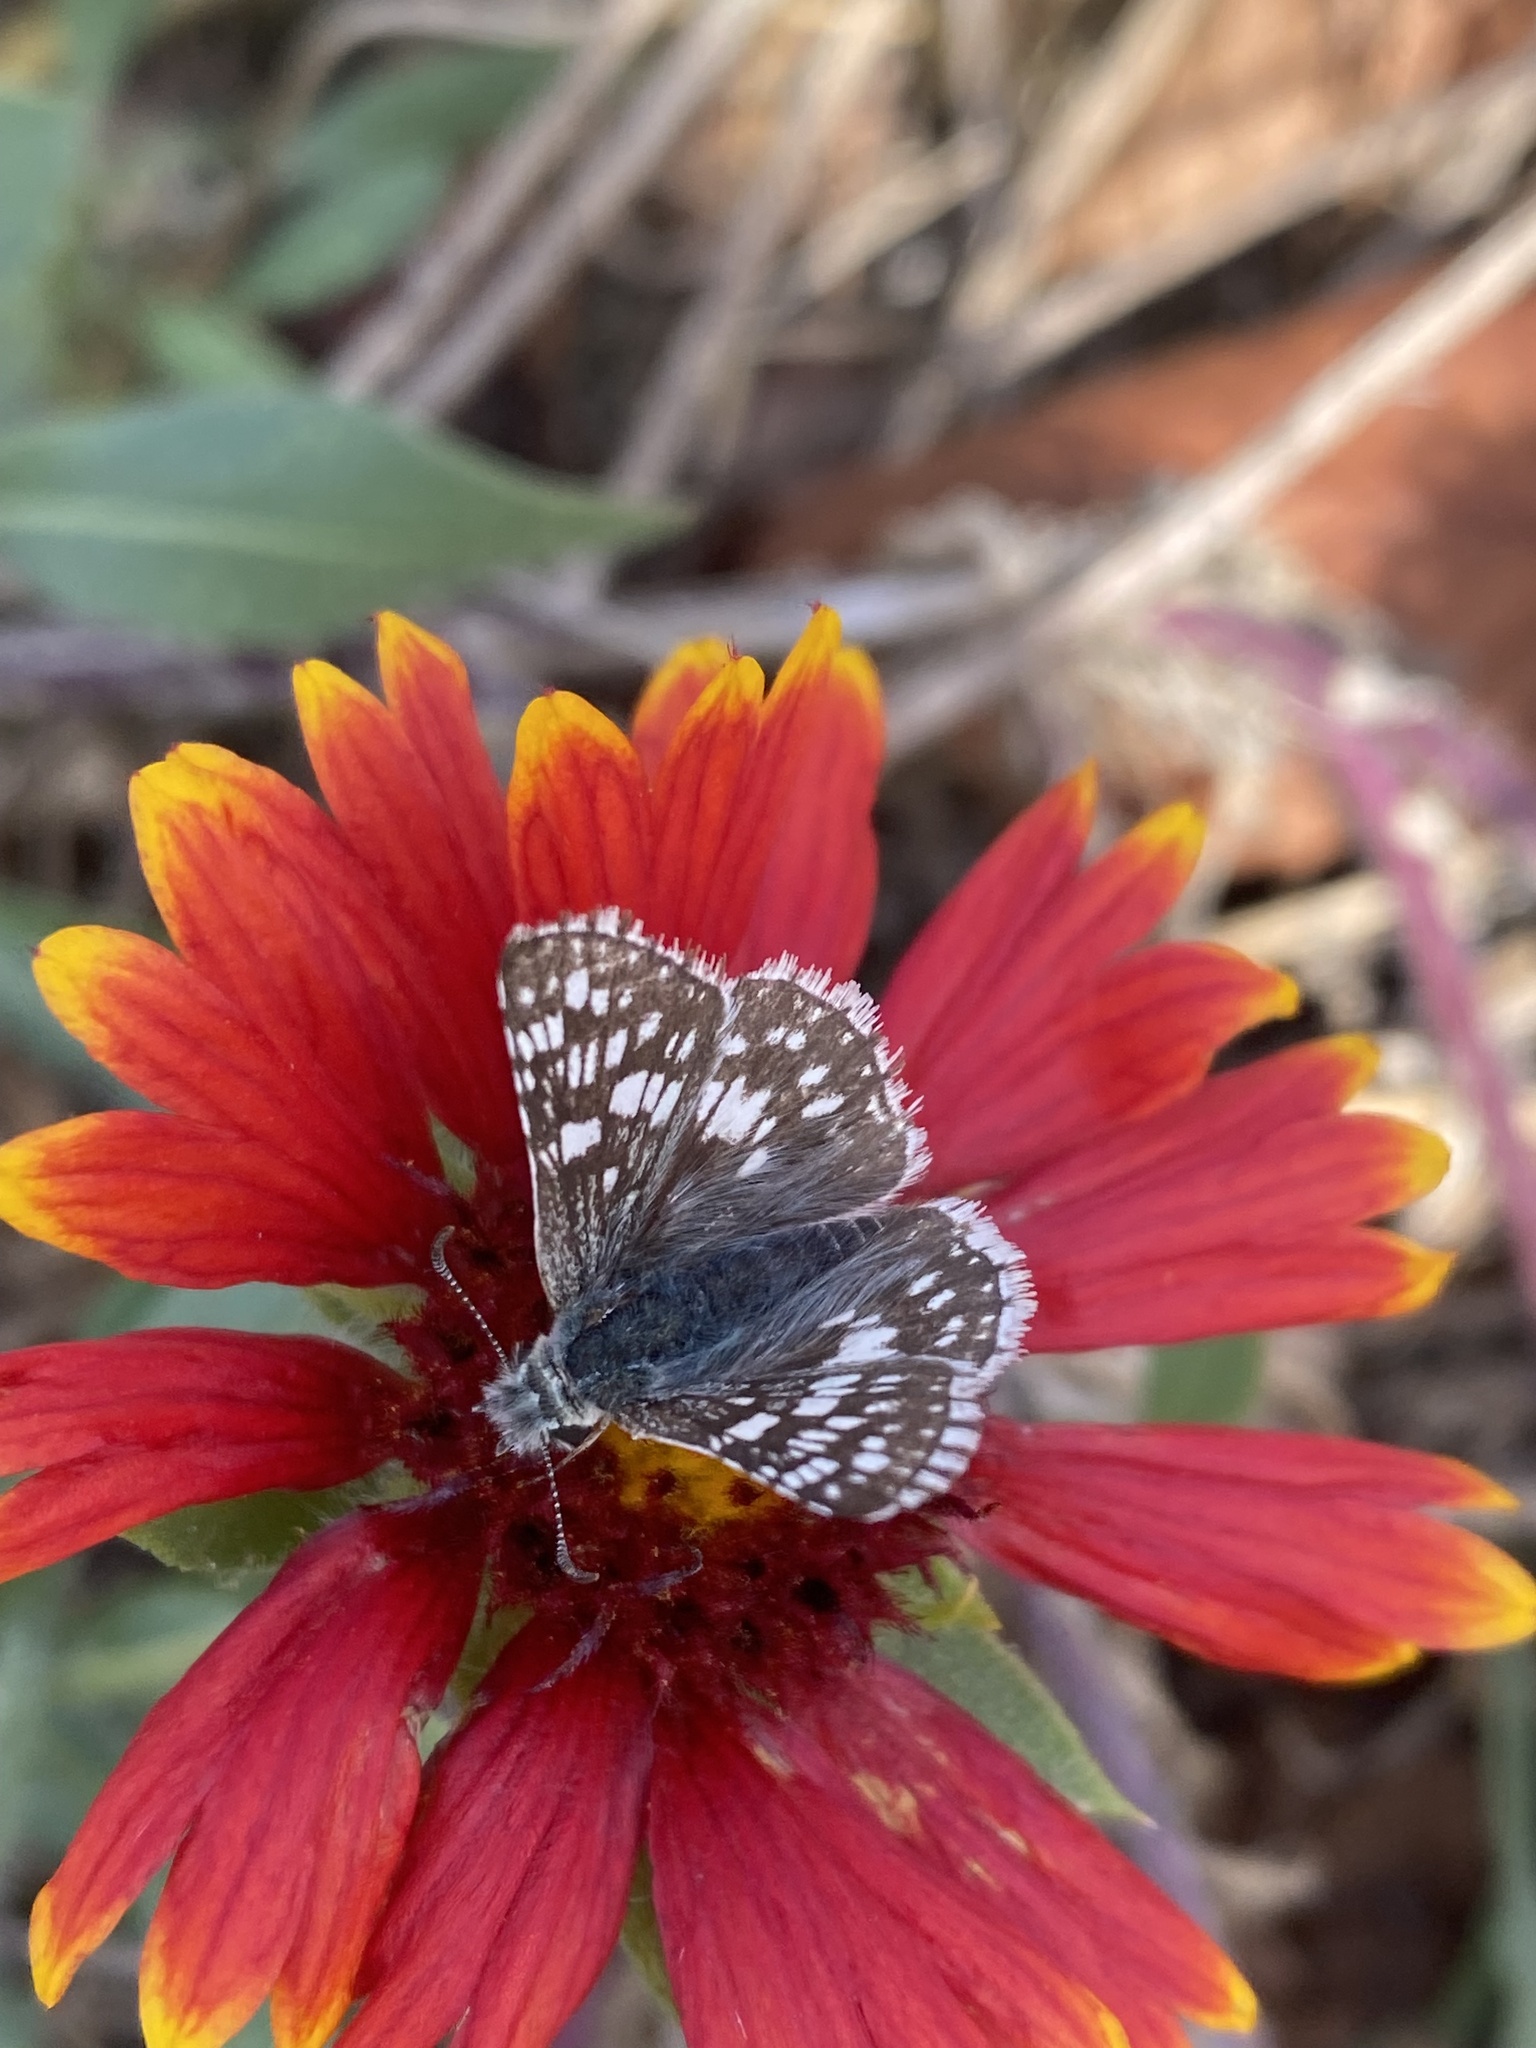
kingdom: Animalia
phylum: Arthropoda
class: Insecta
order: Lepidoptera
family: Hesperiidae
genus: Burnsius
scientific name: Burnsius communis
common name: Common checkered-skipper
